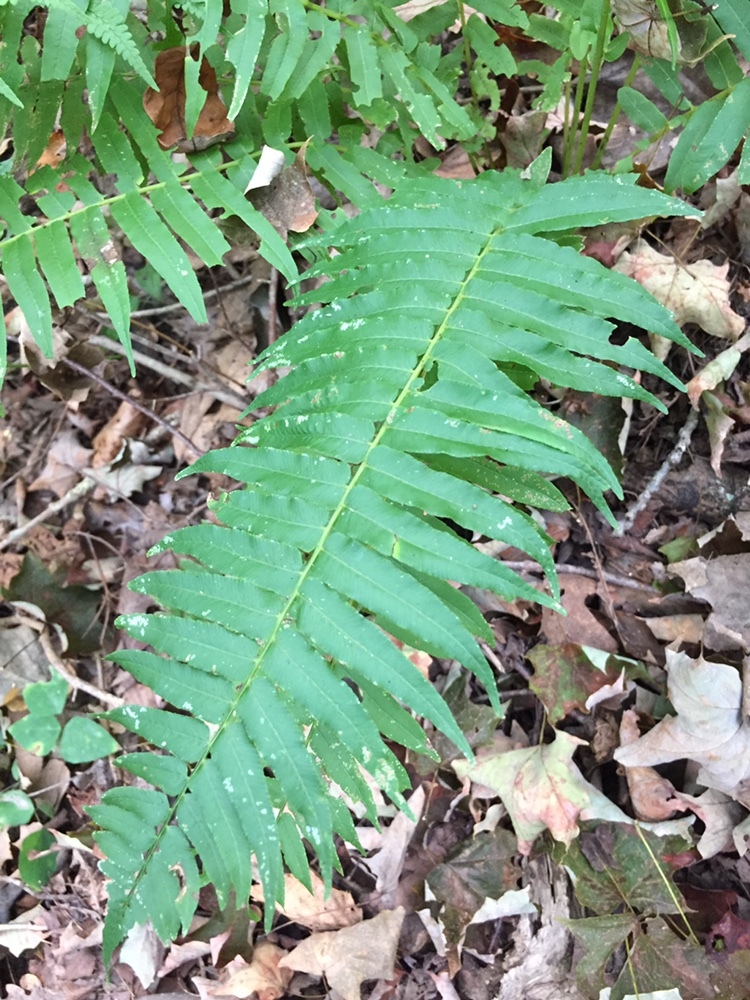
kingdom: Plantae
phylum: Tracheophyta
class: Polypodiopsida
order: Polypodiales
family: Diplaziopsidaceae
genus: Homalosorus
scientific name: Homalosorus pycnocarpos
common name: Glade fern
